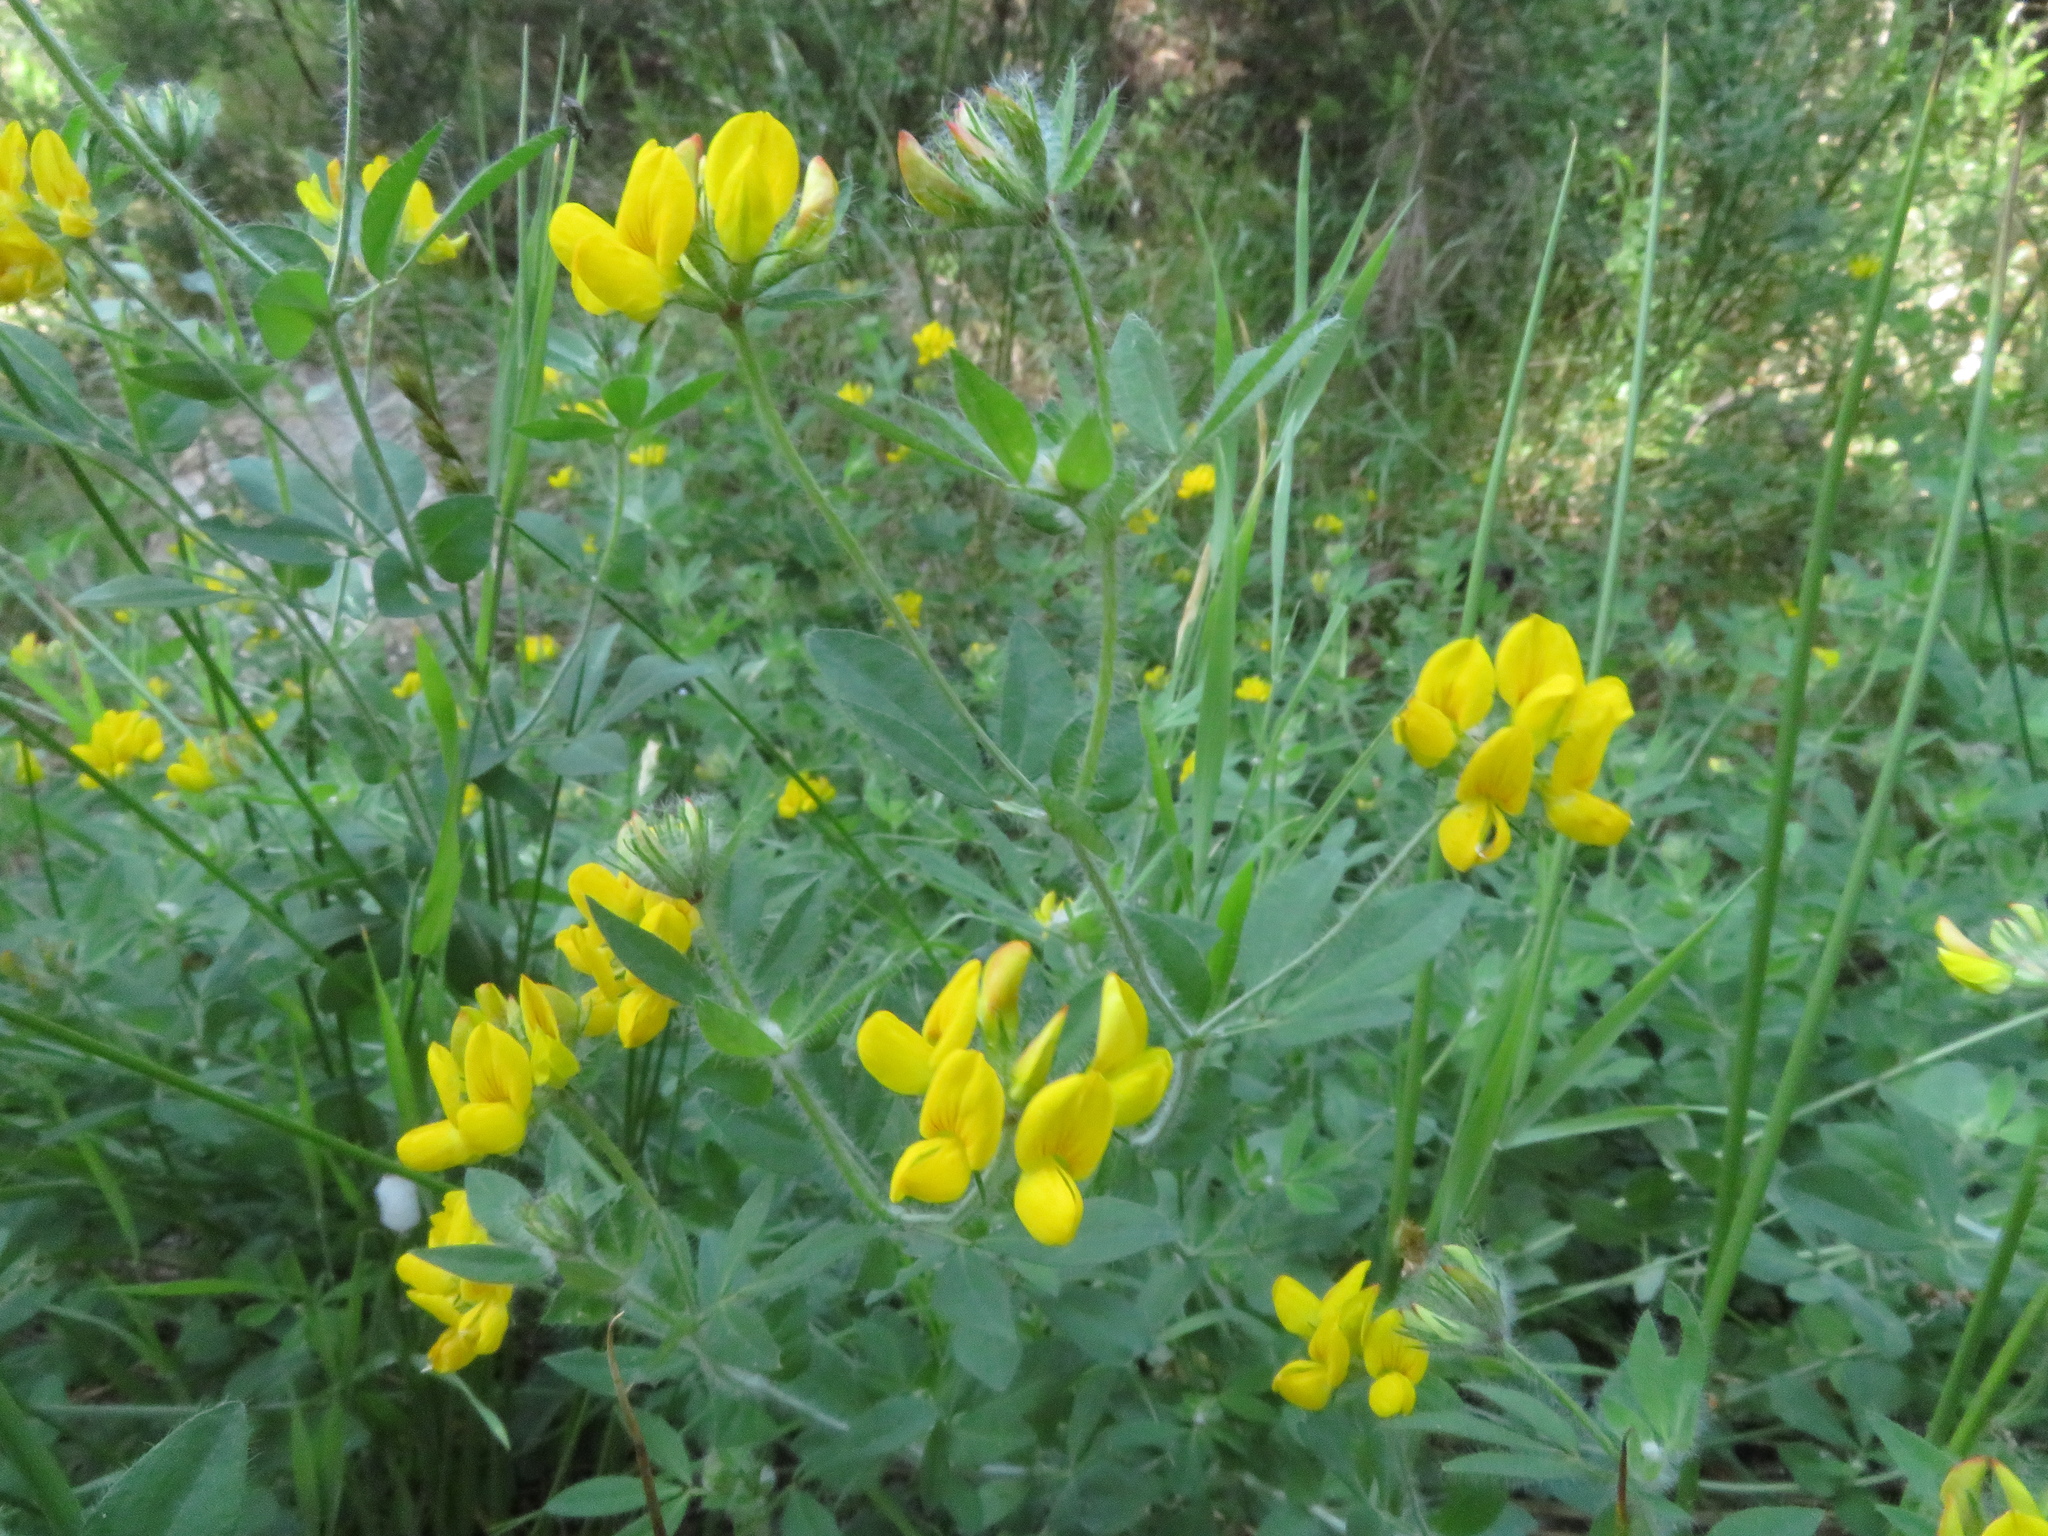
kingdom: Plantae
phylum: Tracheophyta
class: Magnoliopsida
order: Fabales
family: Fabaceae
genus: Lotus
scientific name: Lotus pedunculatus
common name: Greater birdsfoot-trefoil
